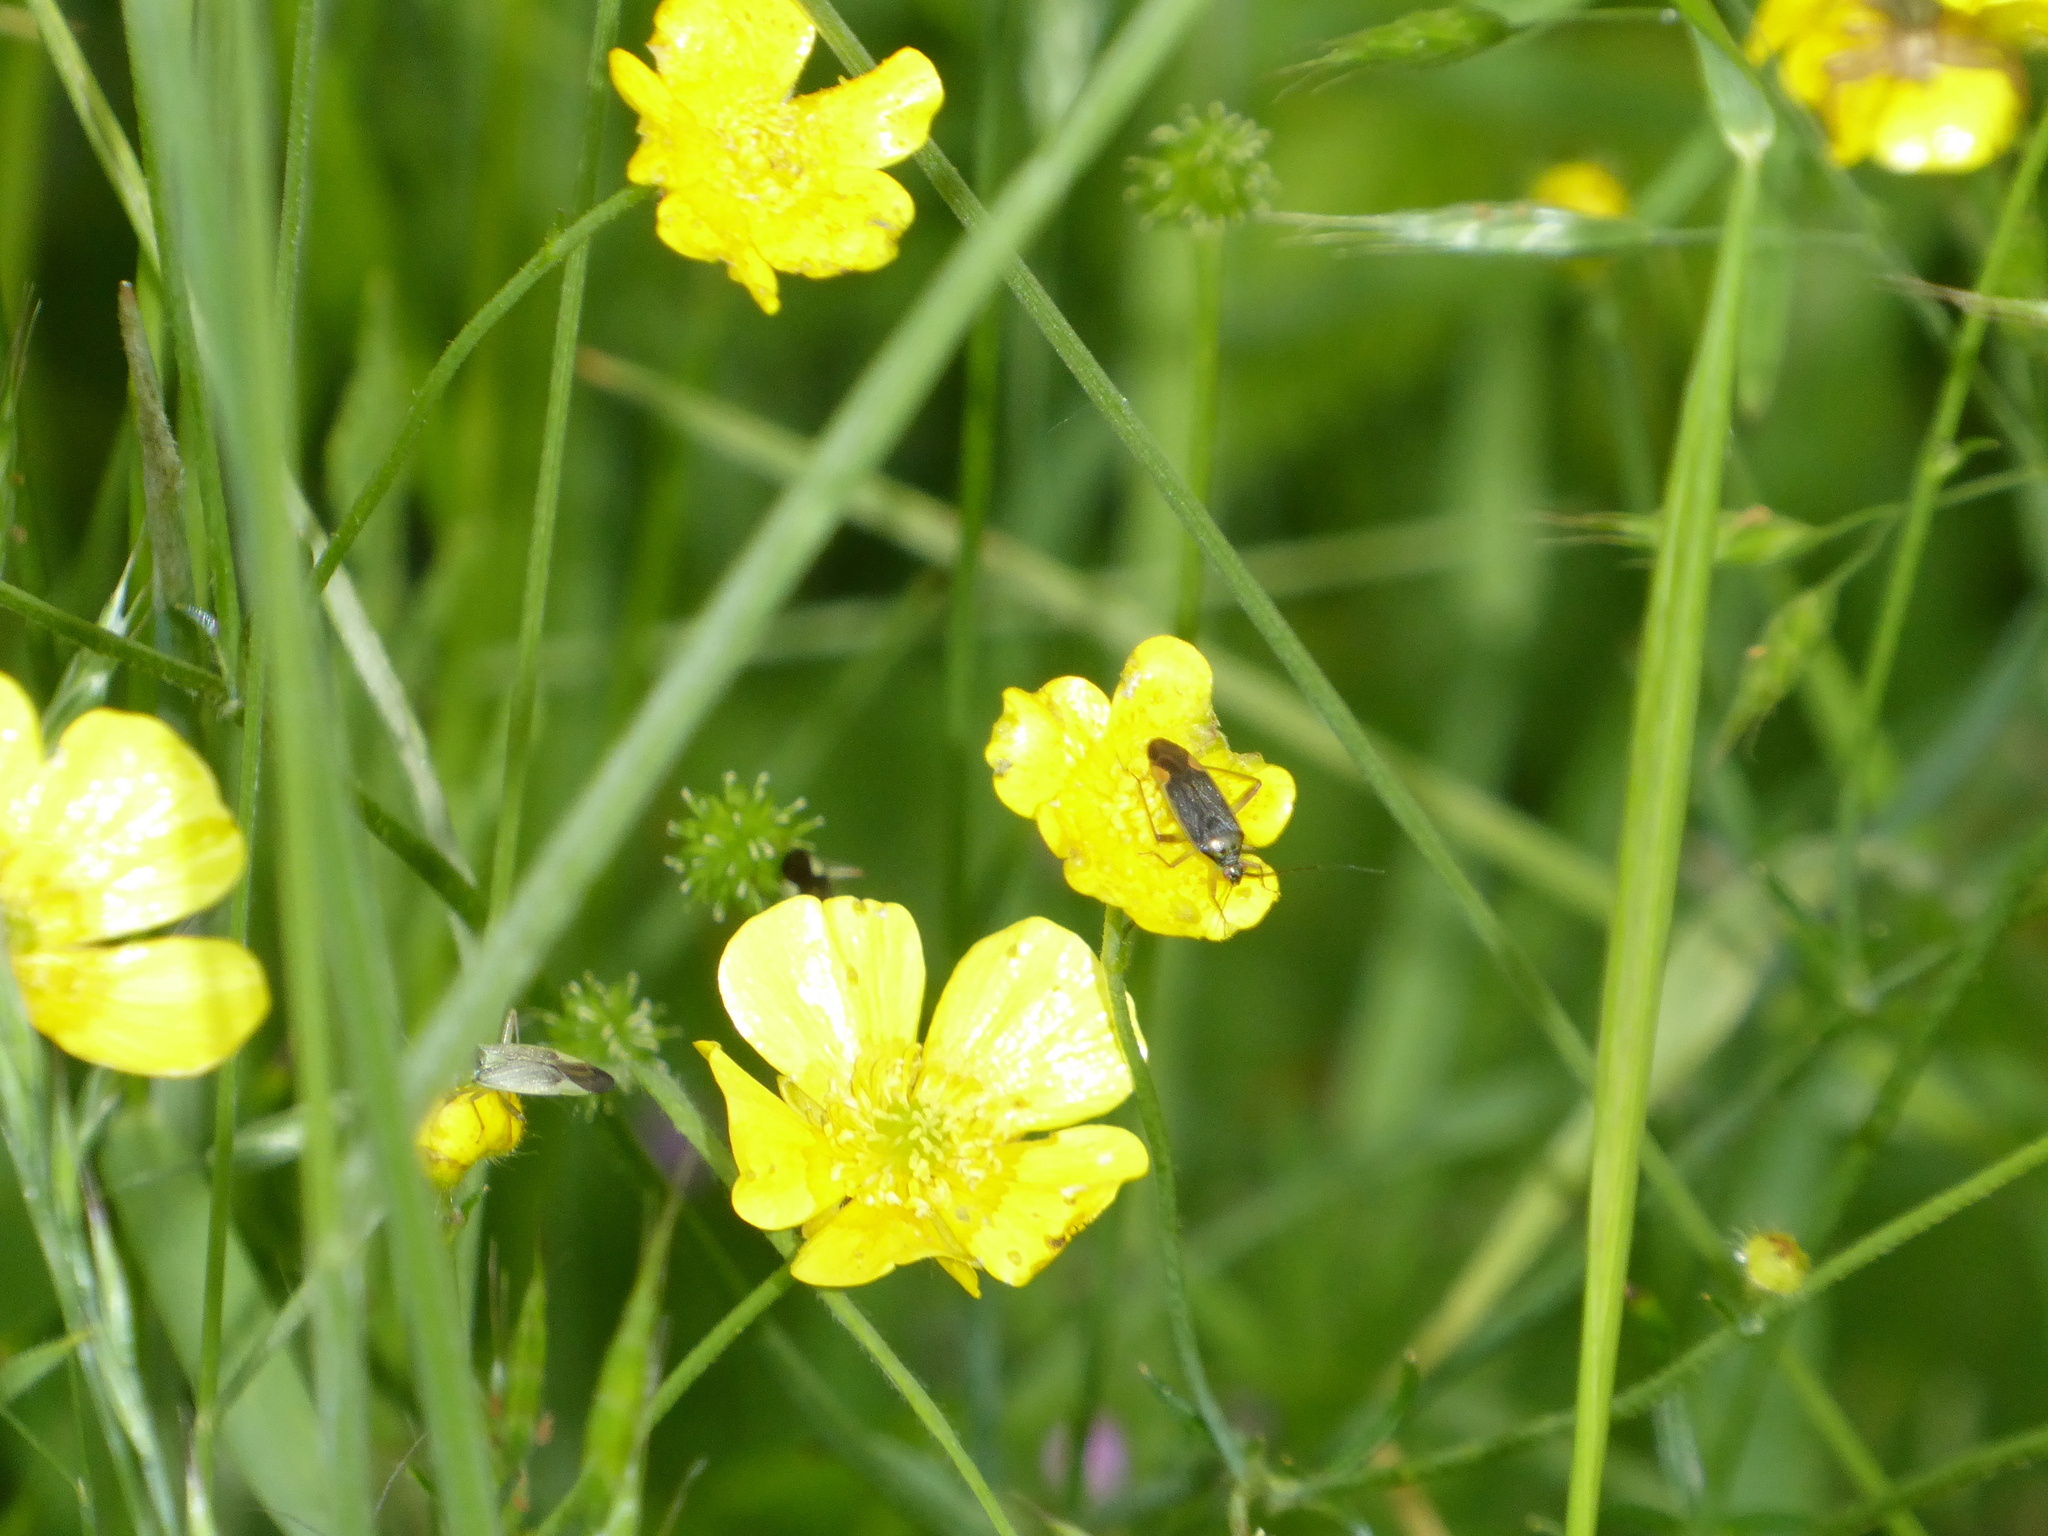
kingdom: Animalia
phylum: Arthropoda
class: Insecta
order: Hemiptera
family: Miridae
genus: Closterotomus
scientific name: Closterotomus trivialis
